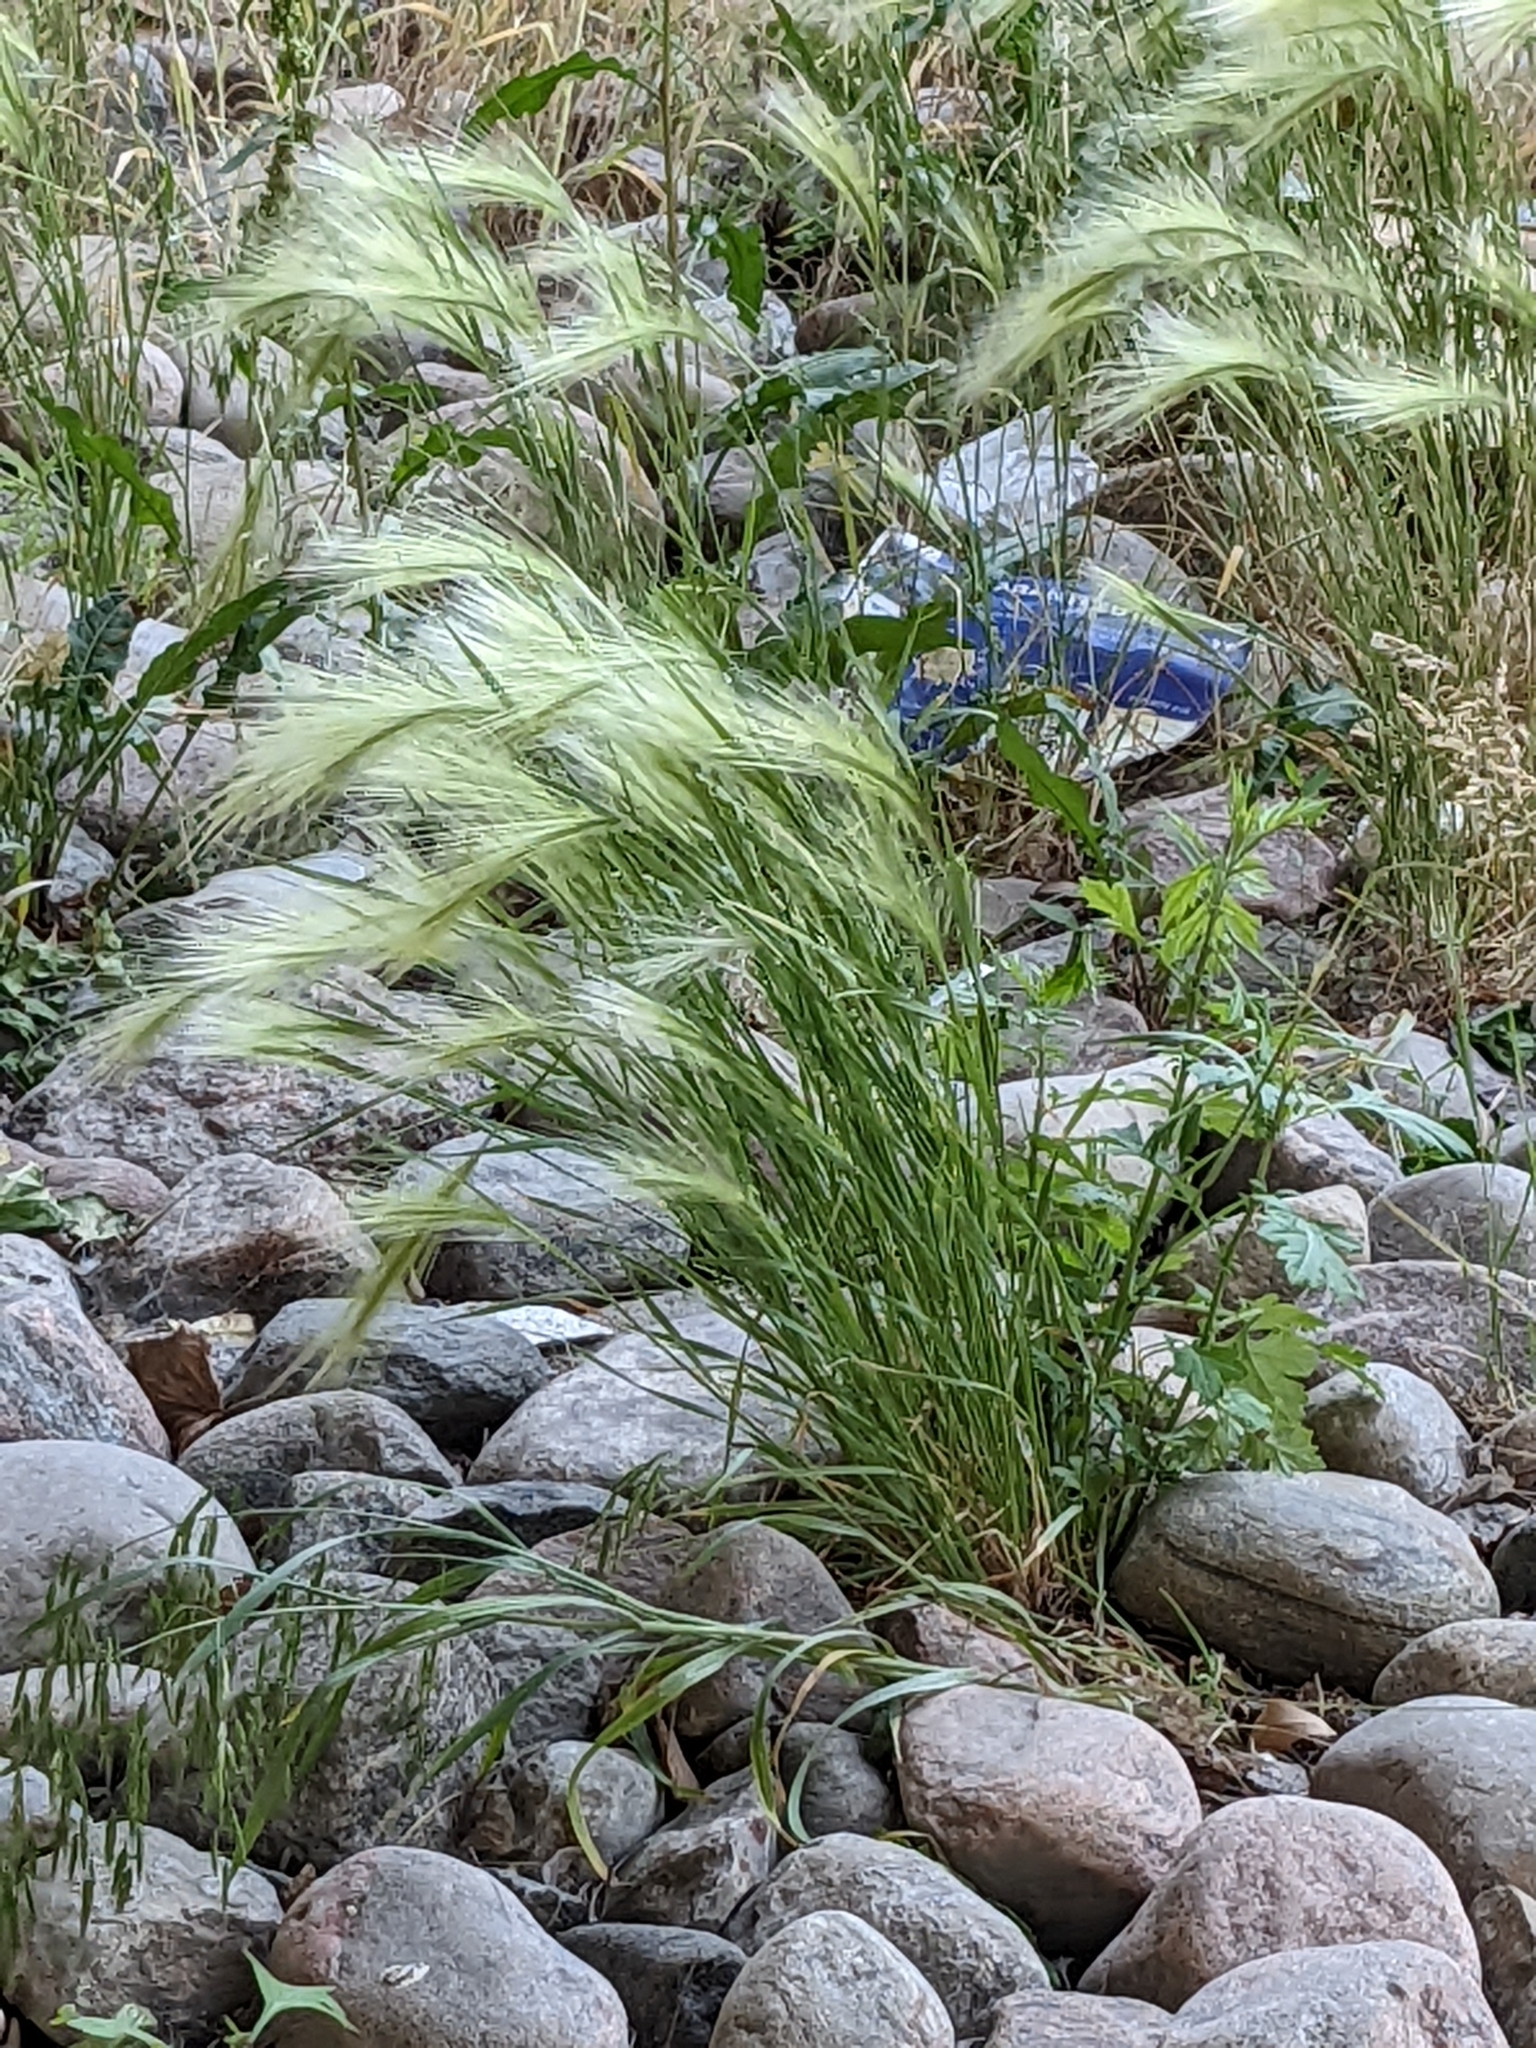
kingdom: Plantae
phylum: Tracheophyta
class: Liliopsida
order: Poales
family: Poaceae
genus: Hordeum
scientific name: Hordeum jubatum
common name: Foxtail barley
